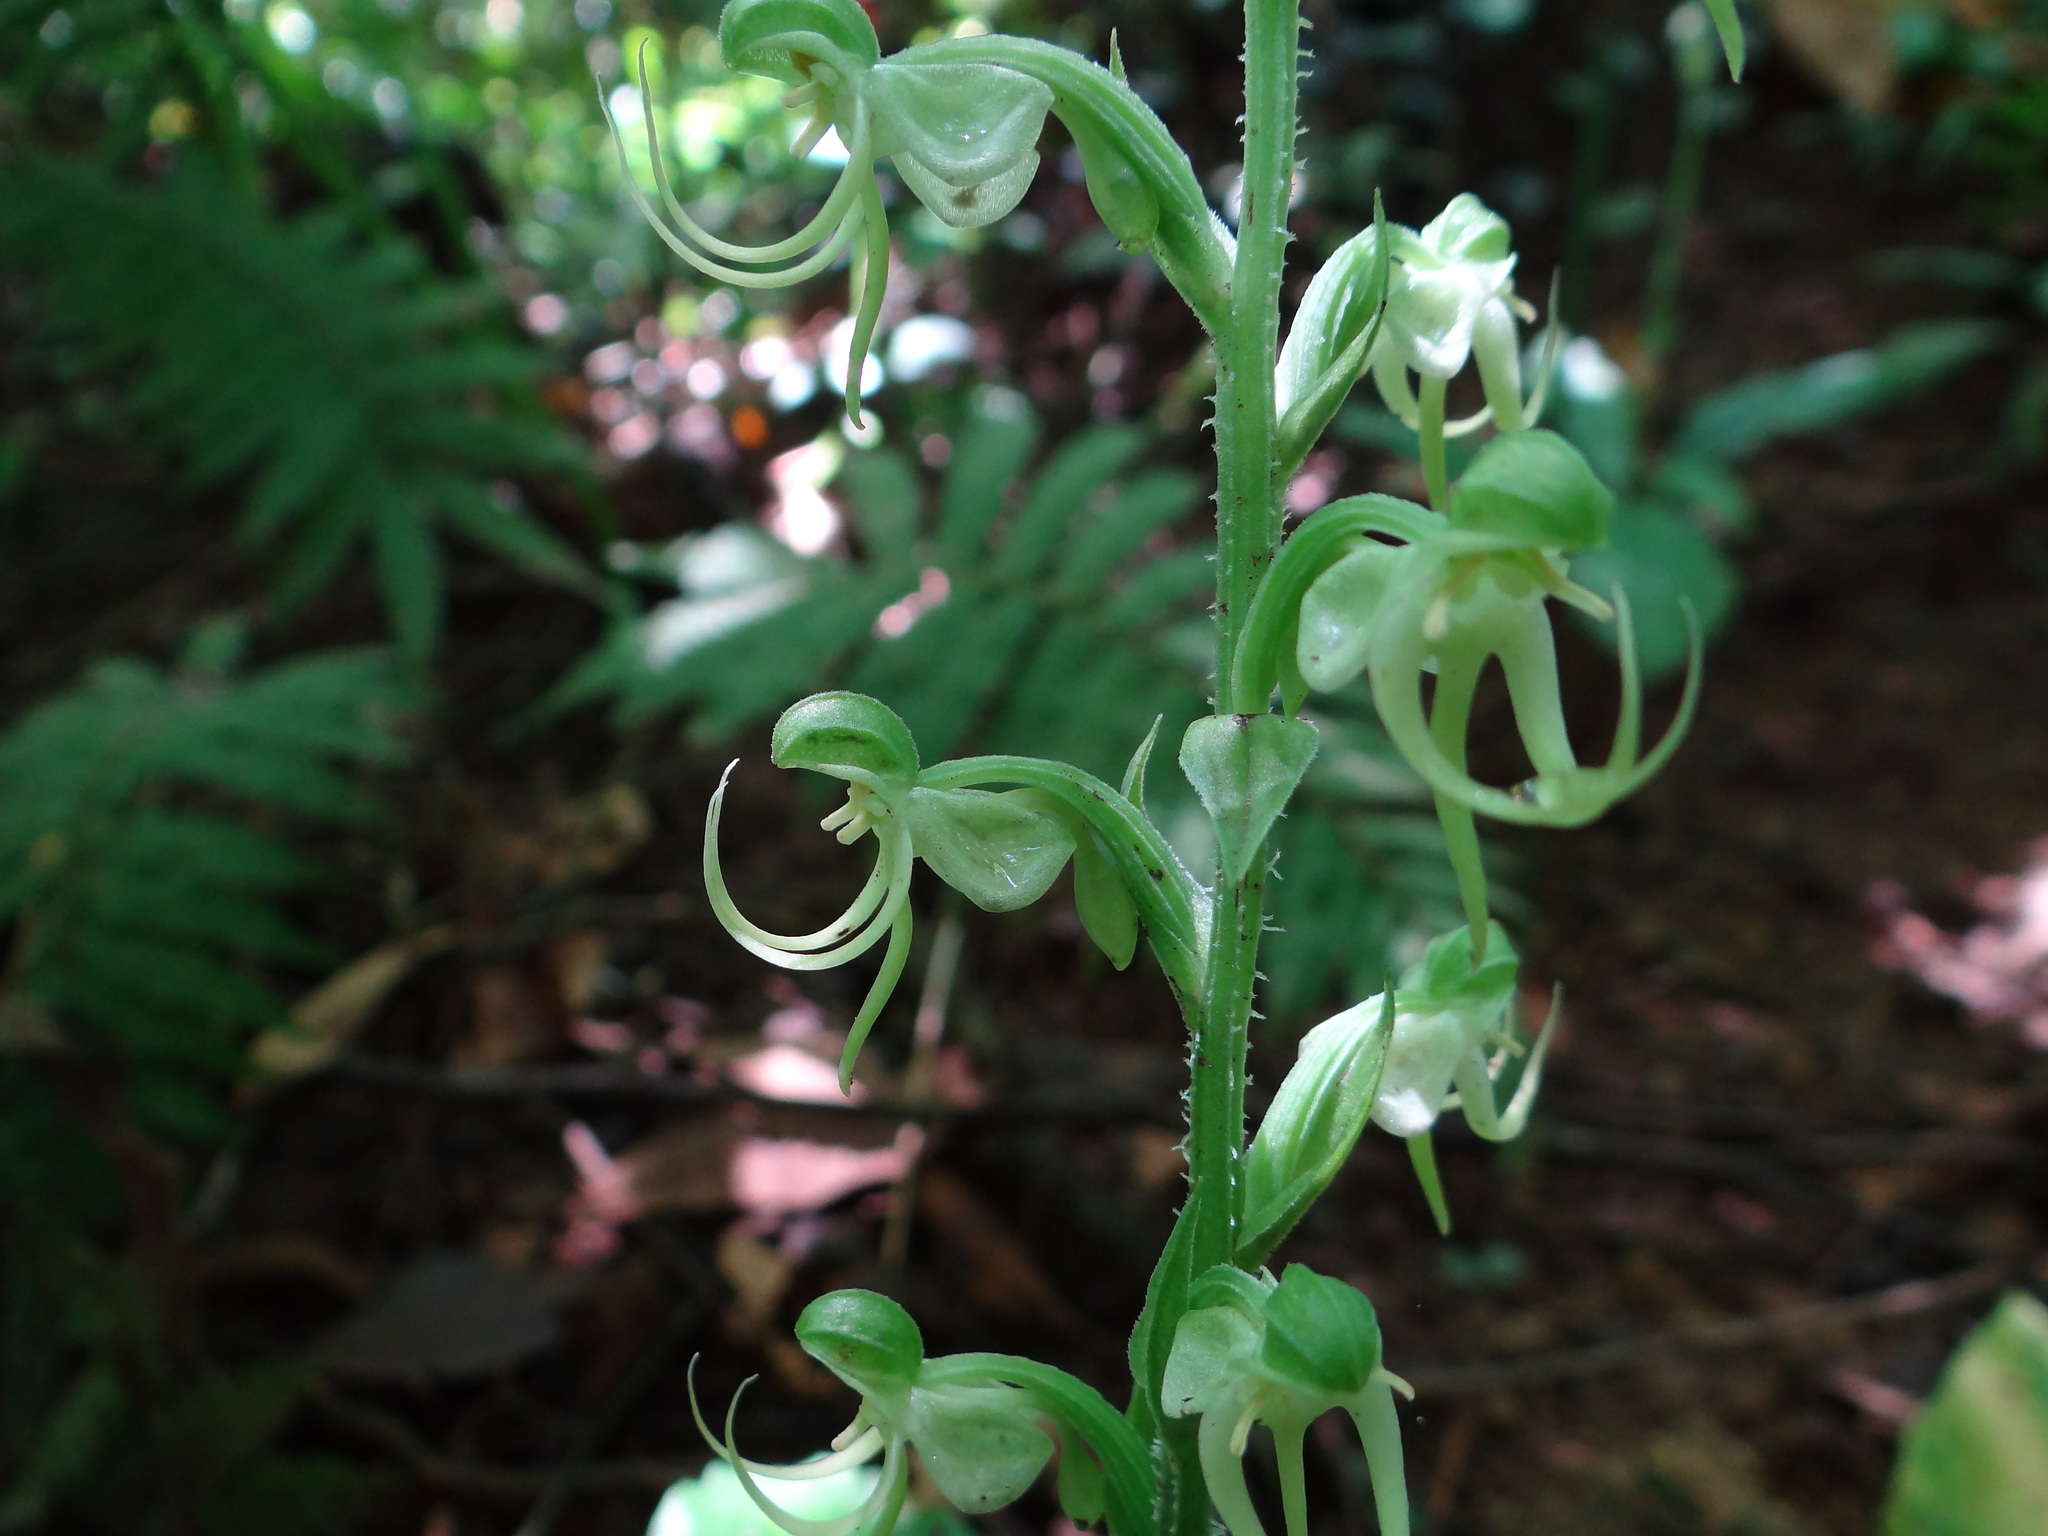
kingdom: Plantae
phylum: Tracheophyta
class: Liliopsida
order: Asparagales
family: Orchidaceae
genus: Habenaria
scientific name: Habenaria ciliolaris
